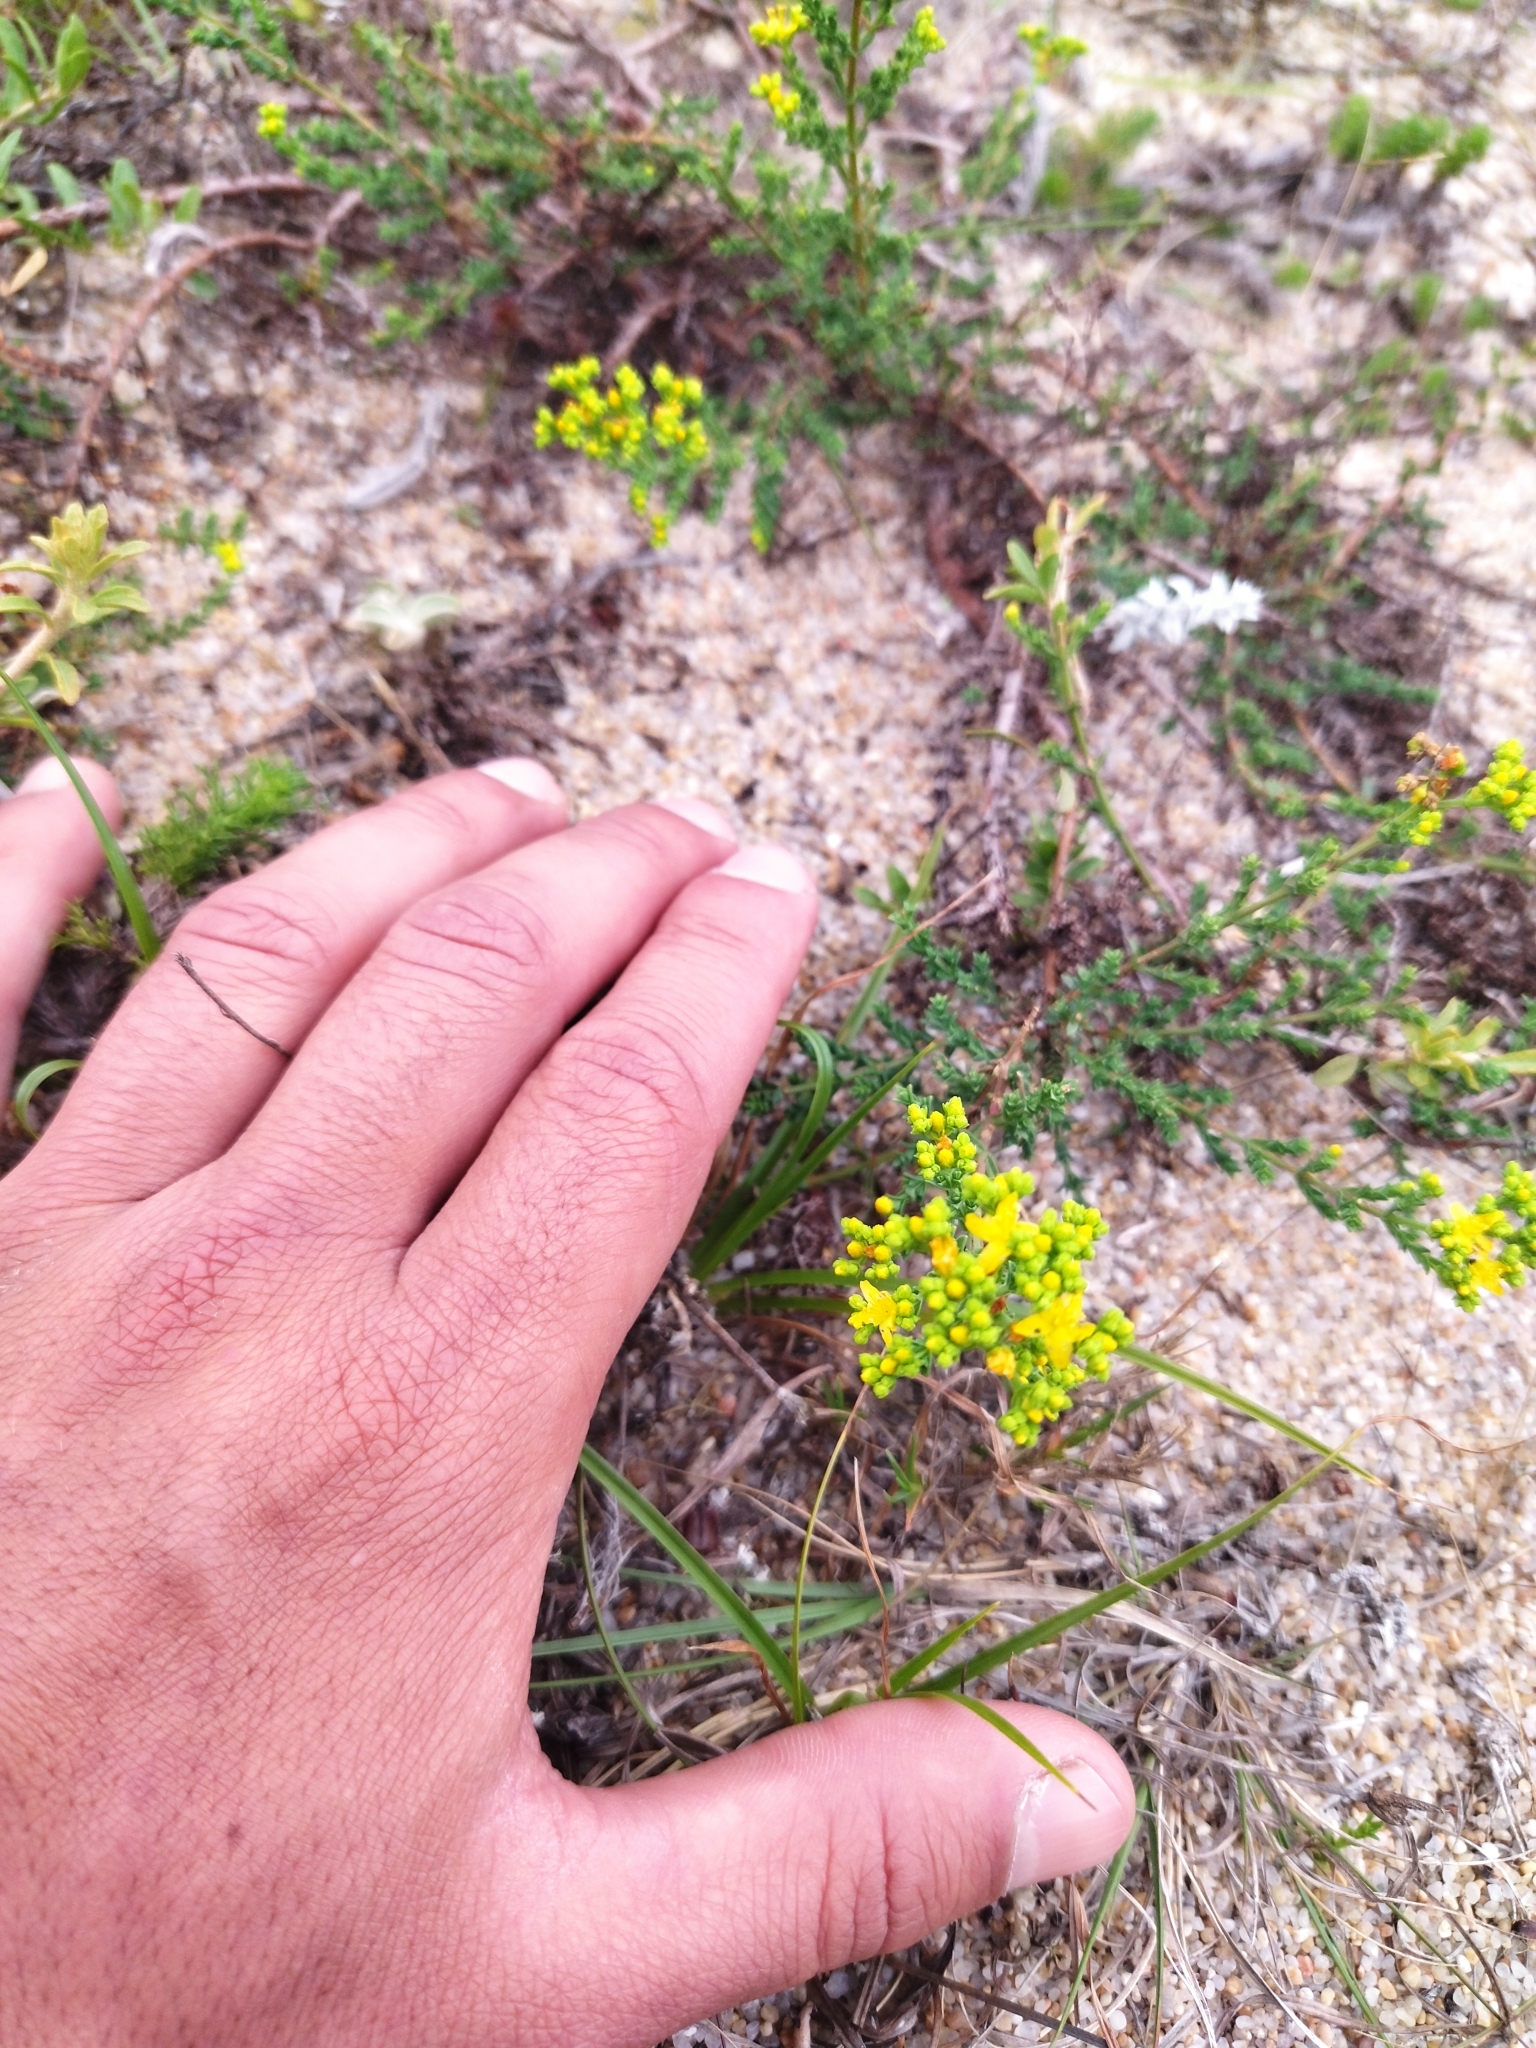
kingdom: Plantae
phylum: Tracheophyta
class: Magnoliopsida
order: Malpighiales
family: Hypericaceae
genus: Hypericum
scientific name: Hypericum myrianthum
